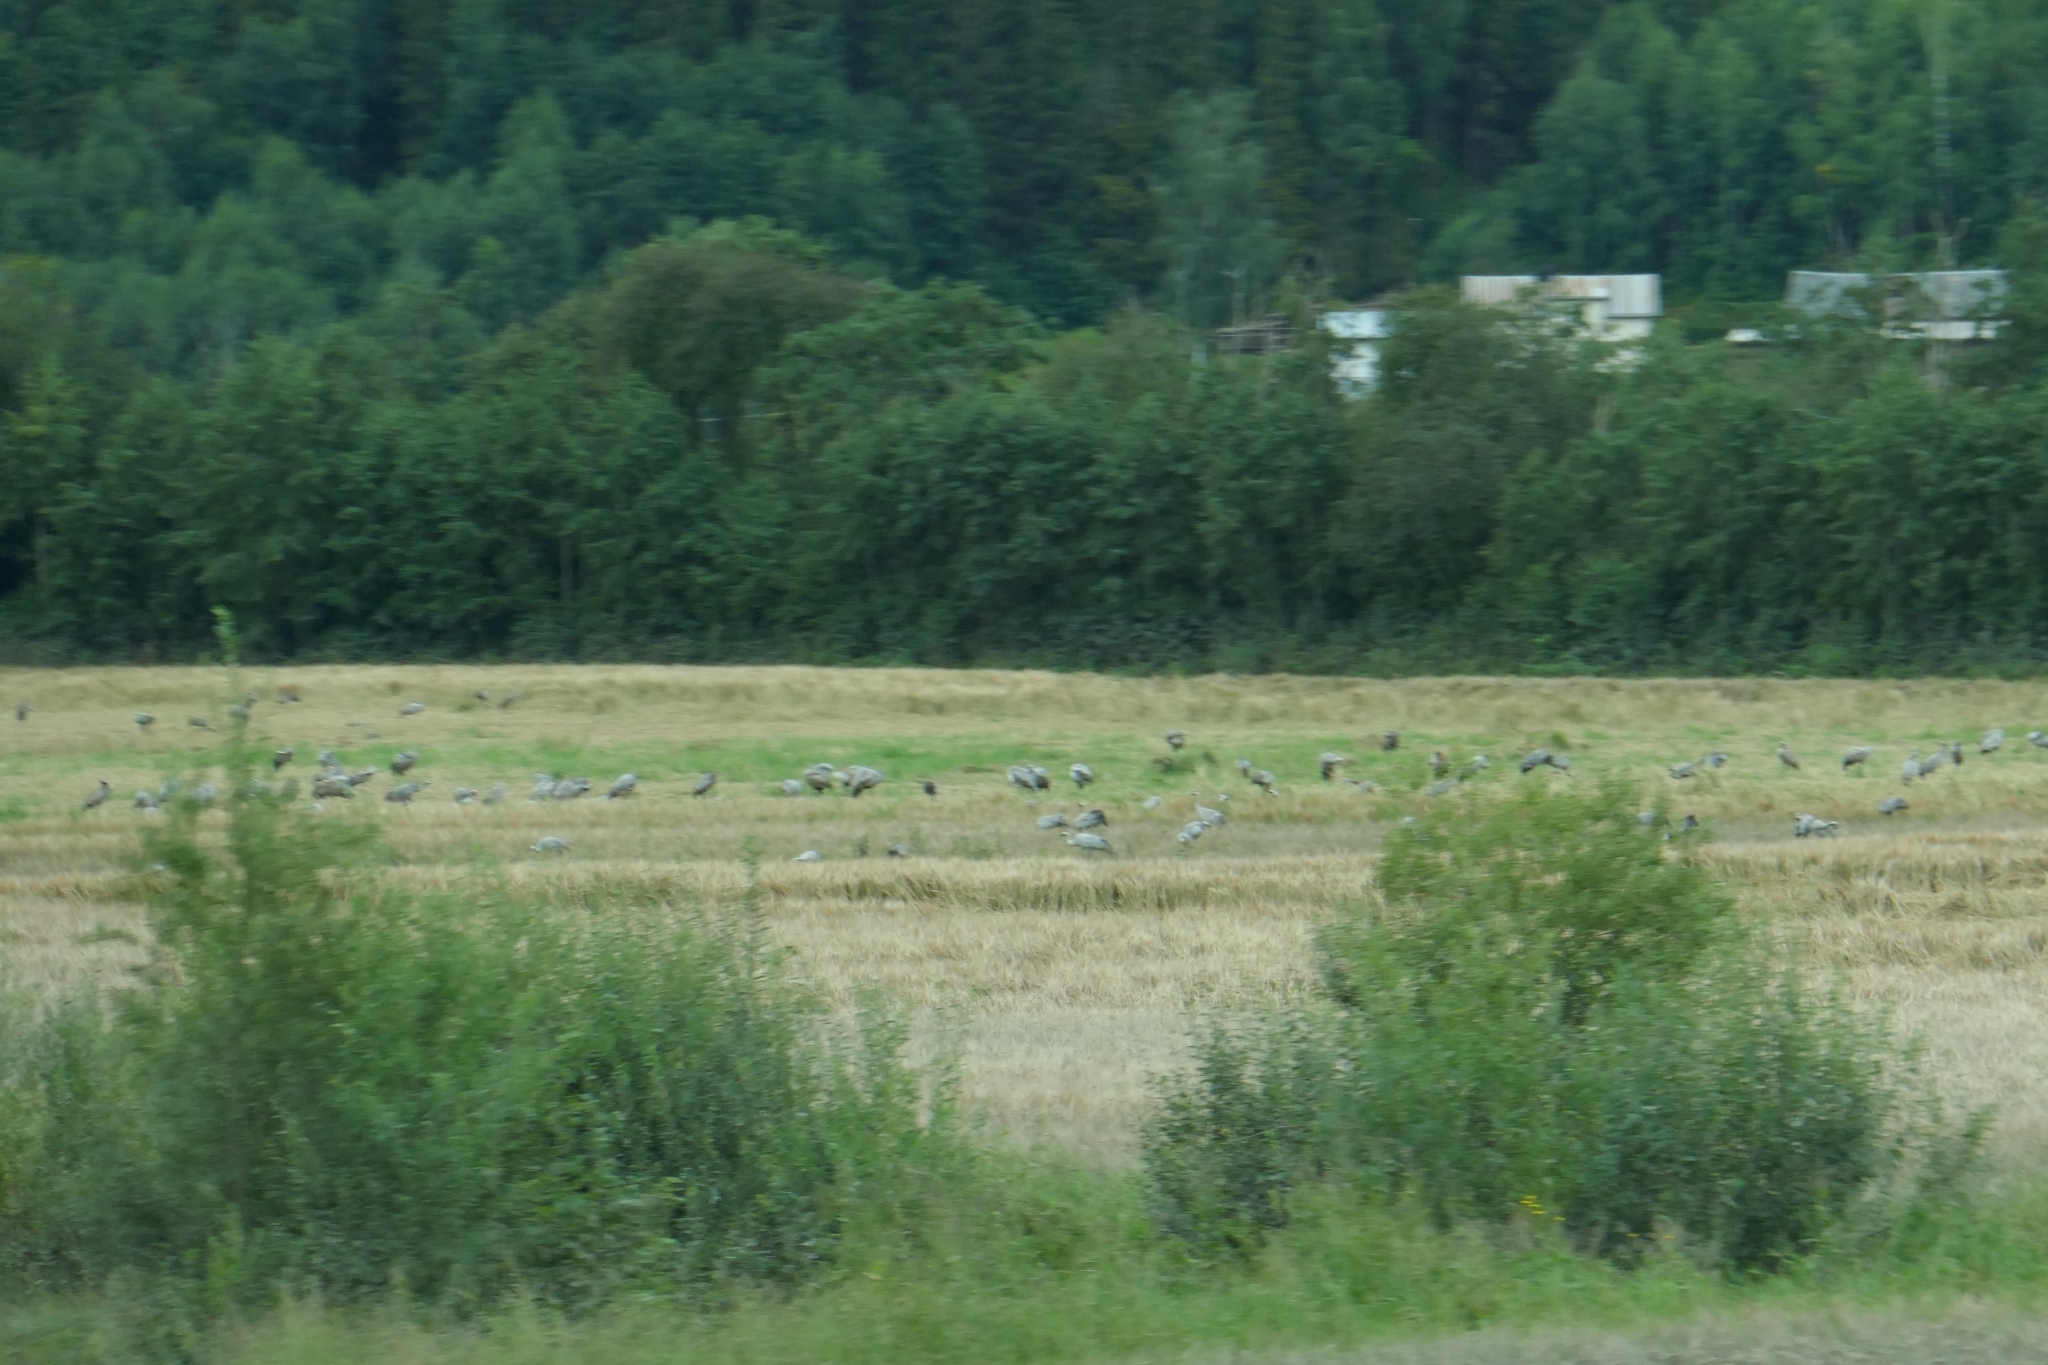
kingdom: Animalia
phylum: Chordata
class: Aves
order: Gruiformes
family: Gruidae
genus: Grus
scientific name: Grus grus
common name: Common crane
